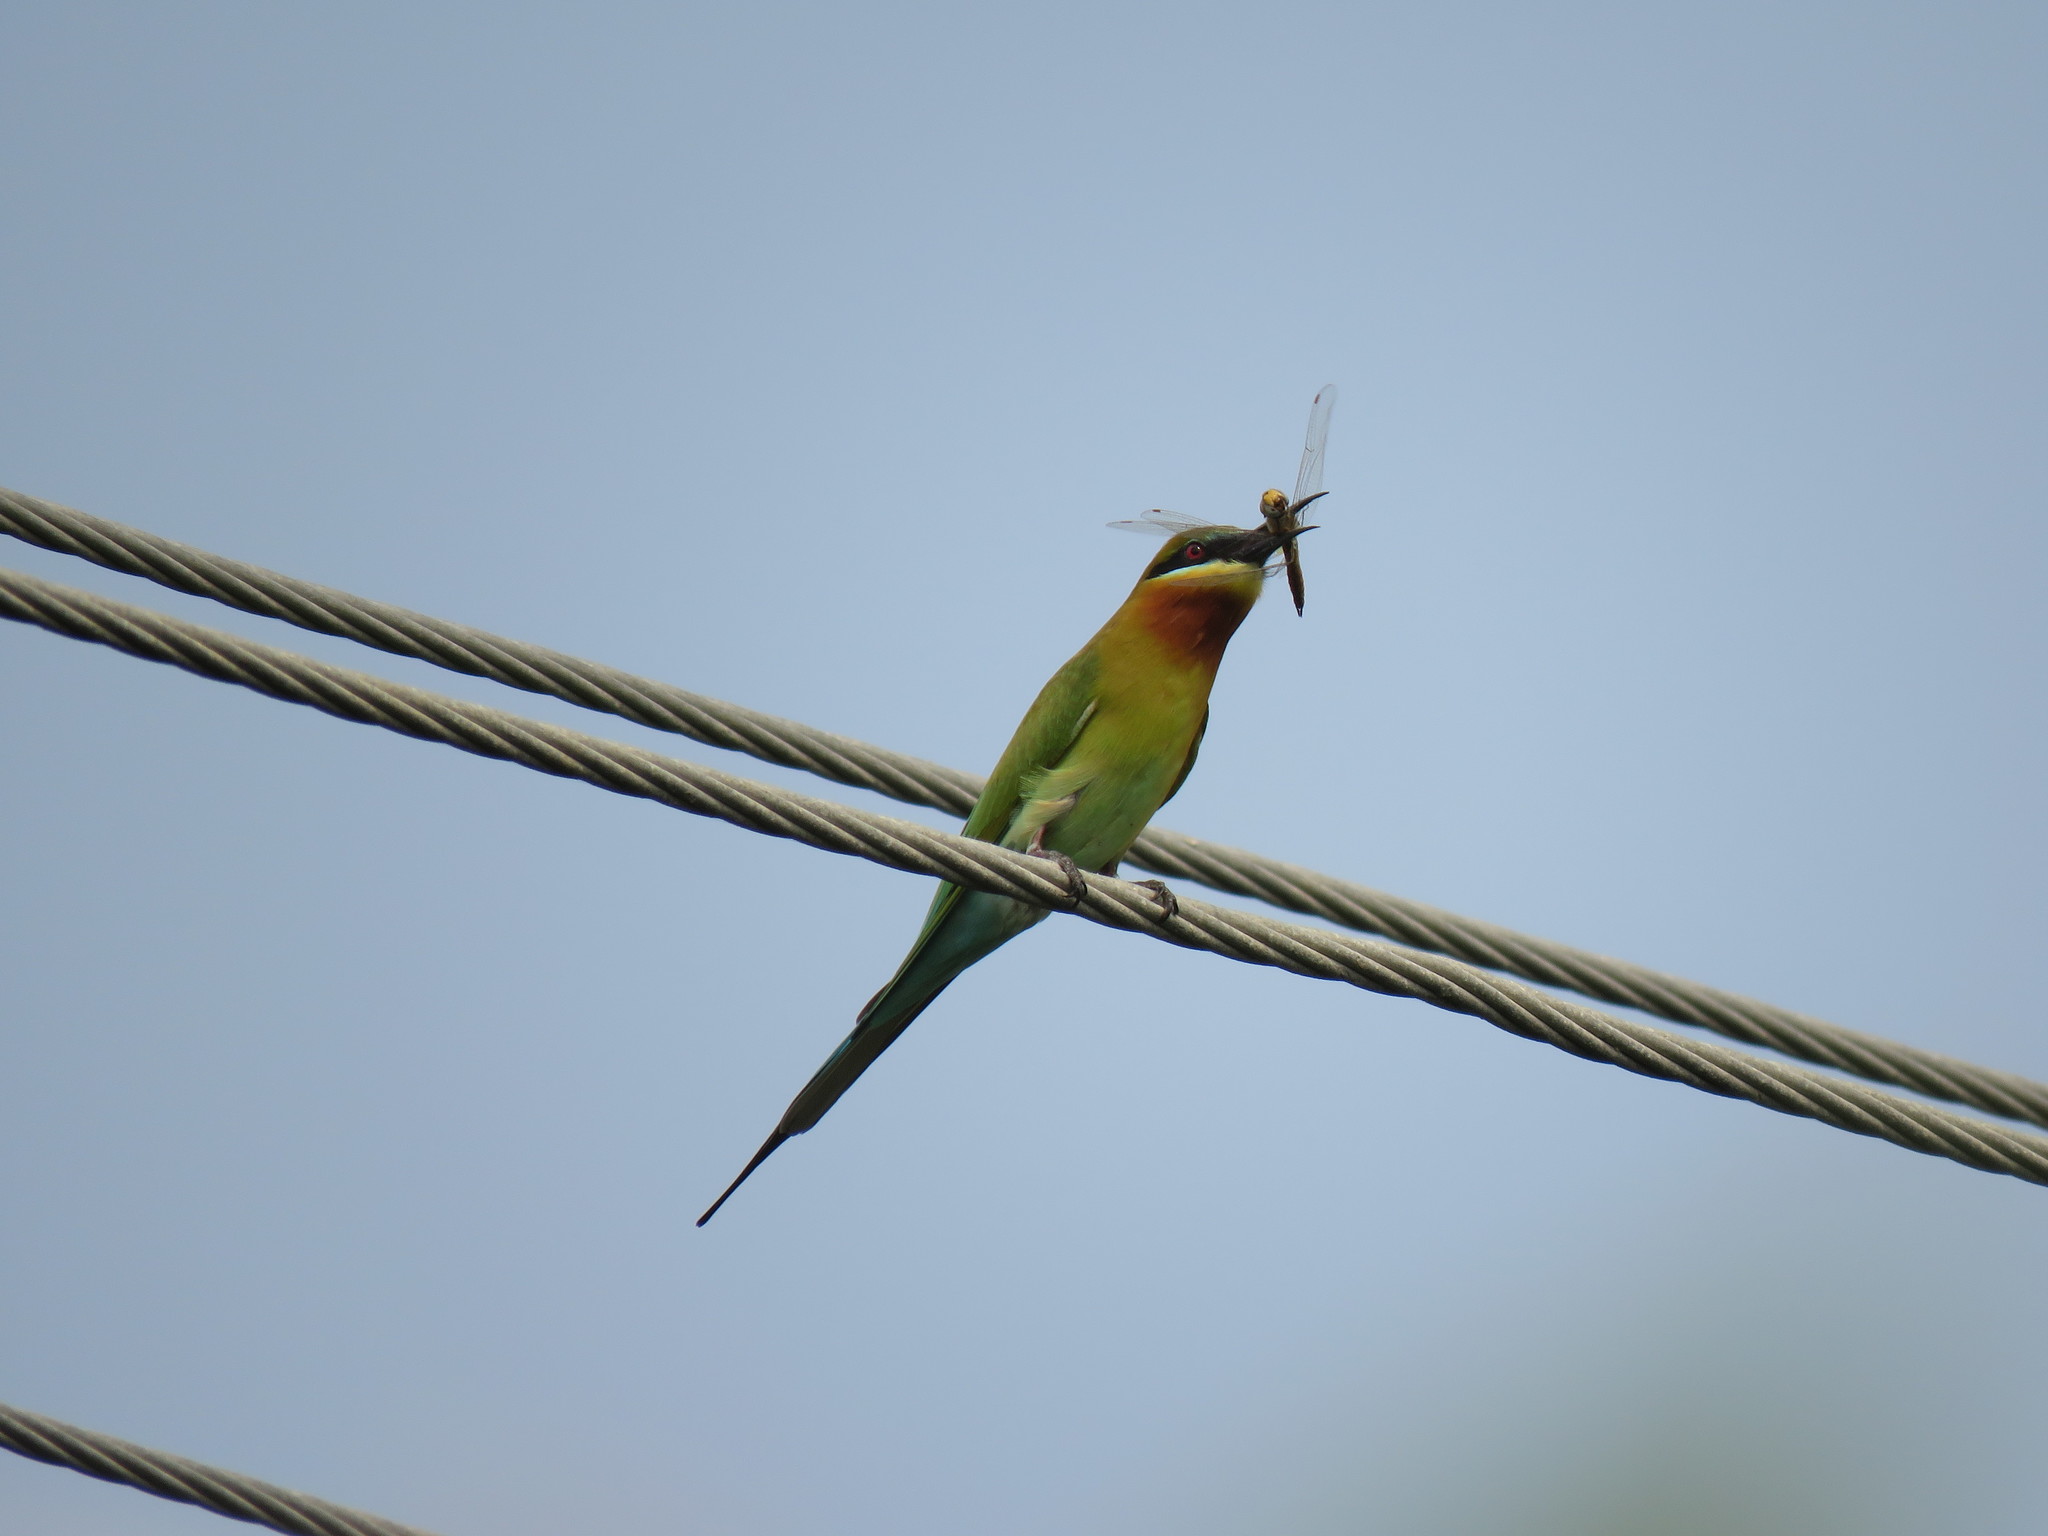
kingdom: Animalia
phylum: Chordata
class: Aves
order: Coraciiformes
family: Meropidae
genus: Merops
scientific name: Merops philippinus
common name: Blue-tailed bee-eater
